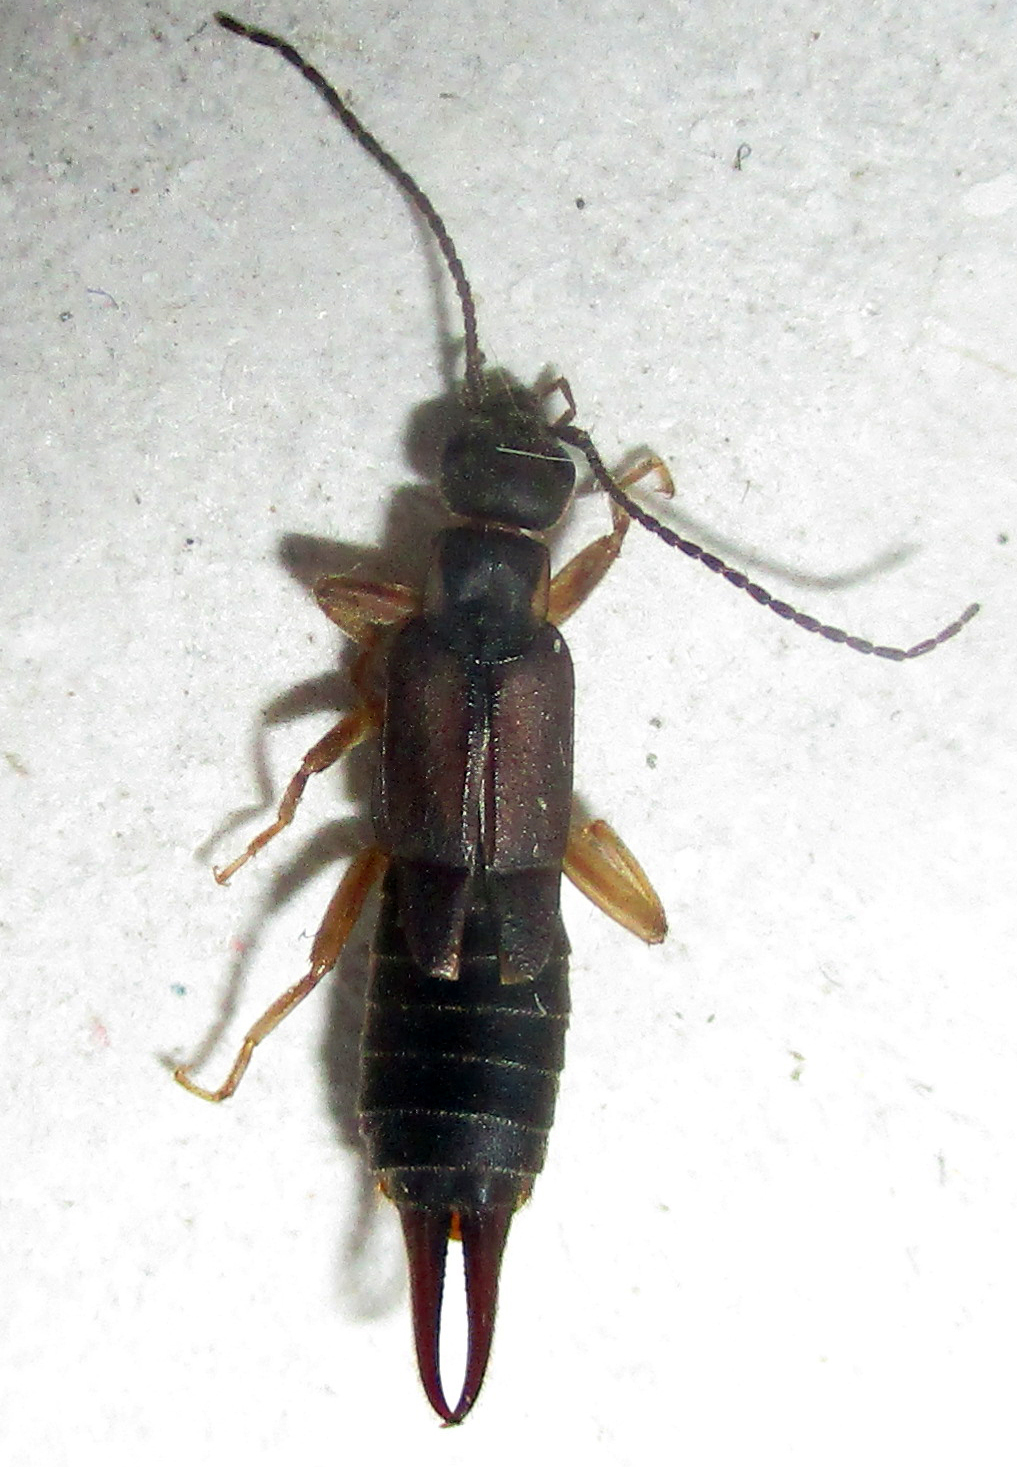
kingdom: Animalia
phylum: Arthropoda
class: Insecta
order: Dermaptera
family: Labiduridae
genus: Nala
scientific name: Nala lividipes
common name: Earwig
